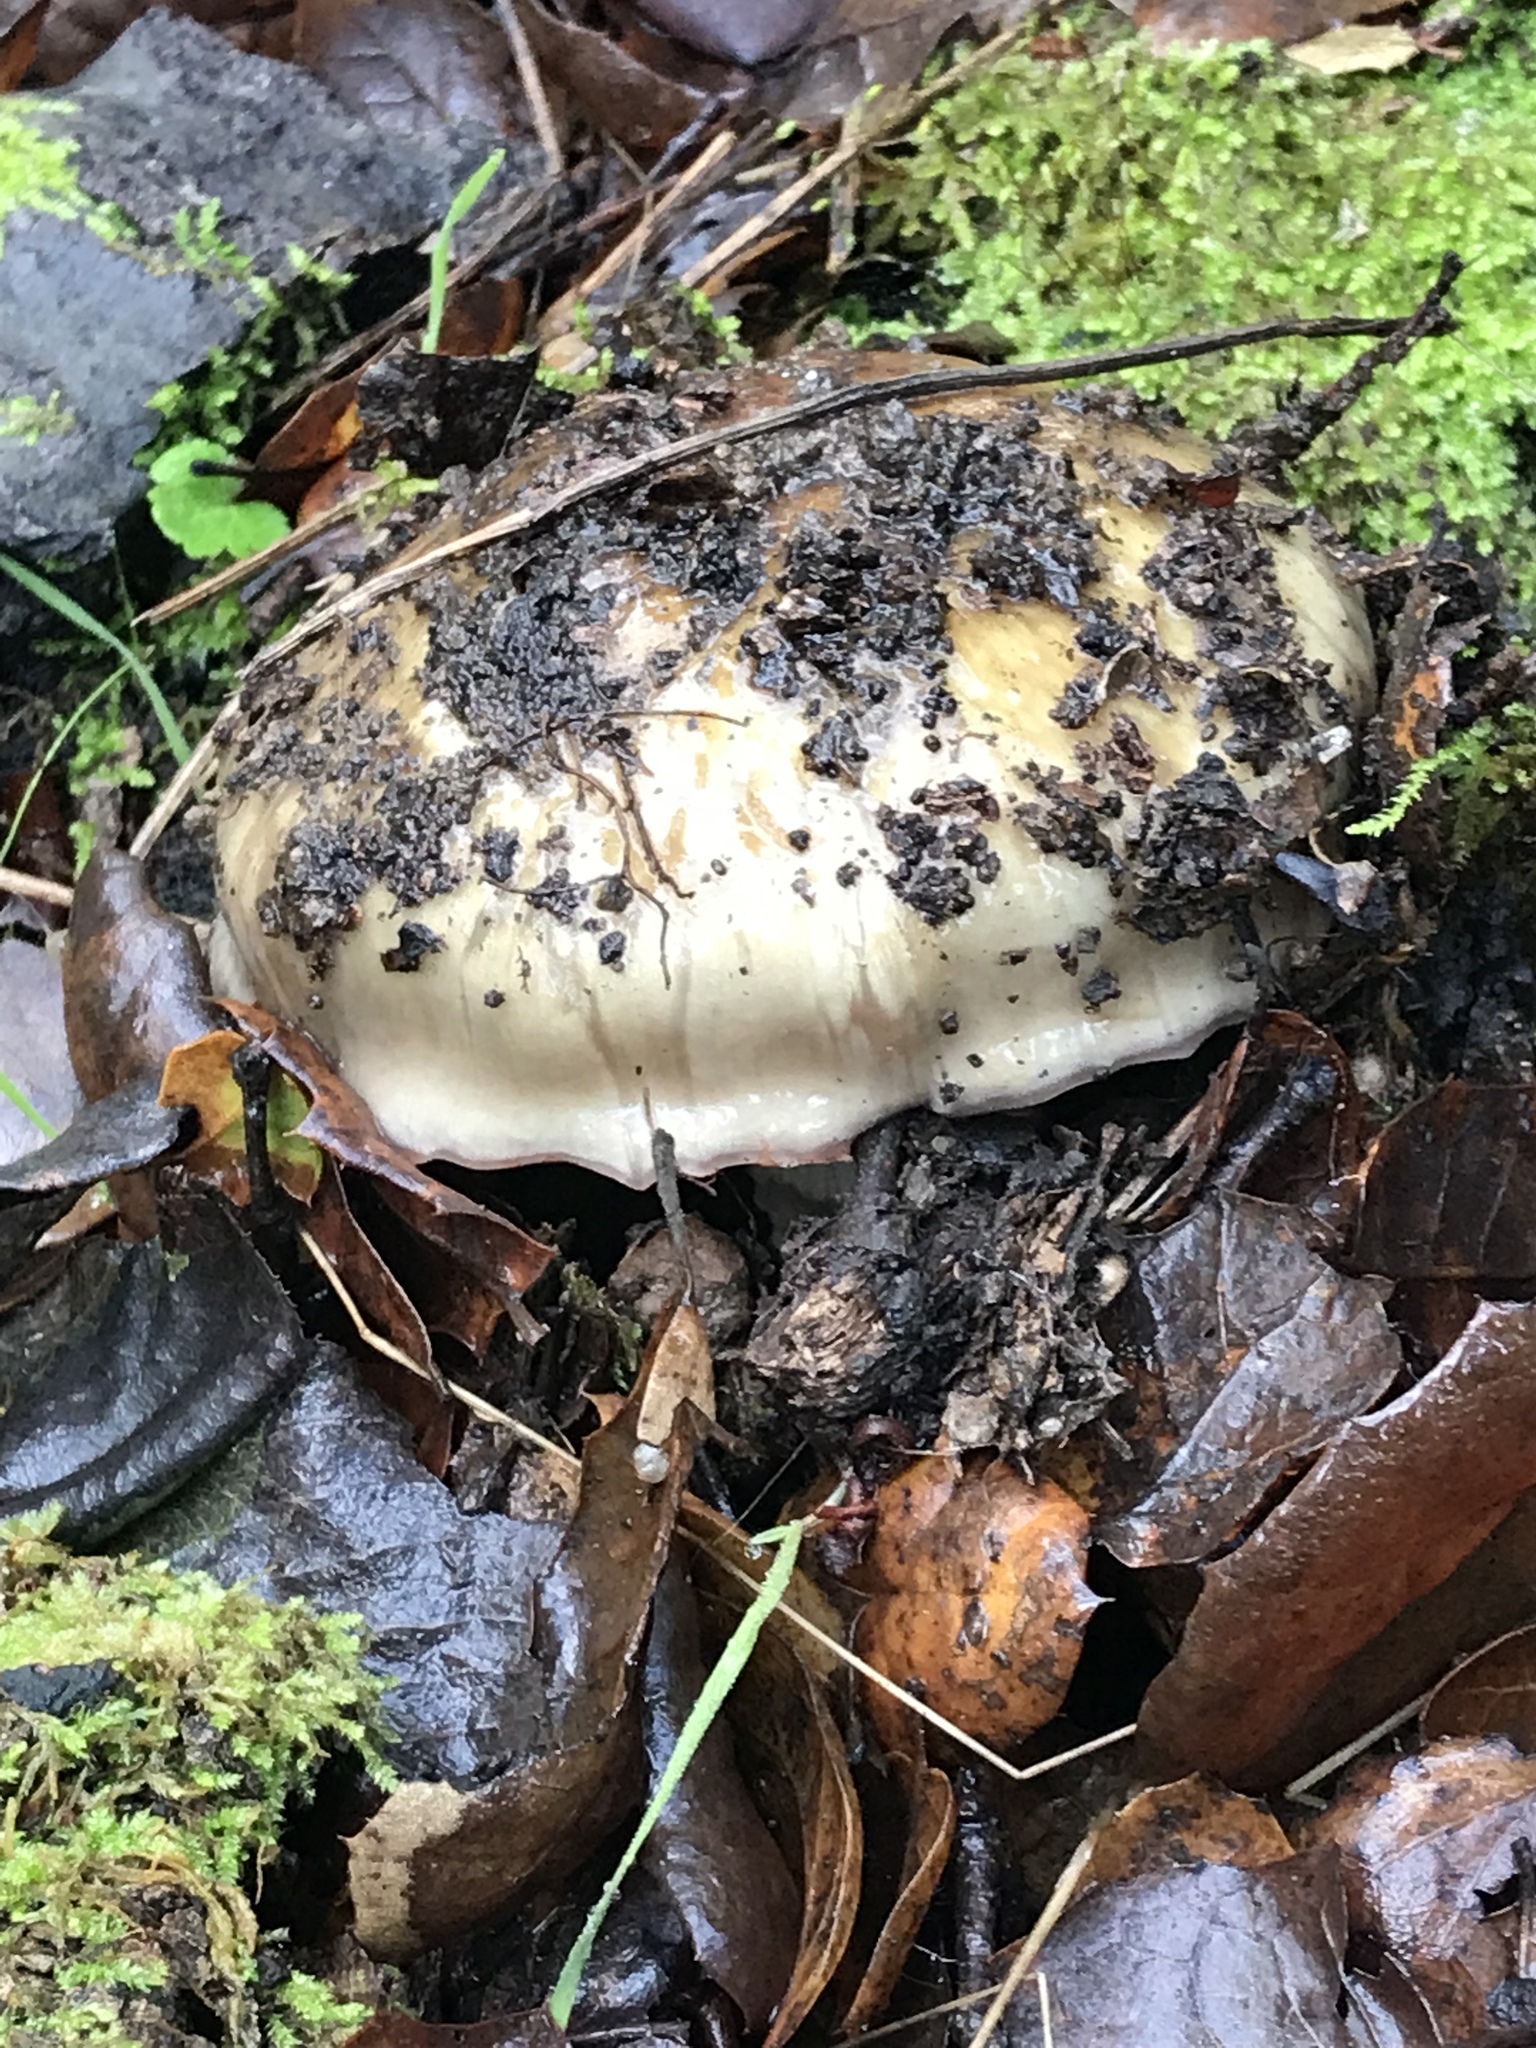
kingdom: Fungi
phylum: Basidiomycota
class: Agaricomycetes
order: Agaricales
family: Cortinariaceae
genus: Cortinarius
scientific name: Cortinarius glutinosoarmillatus
